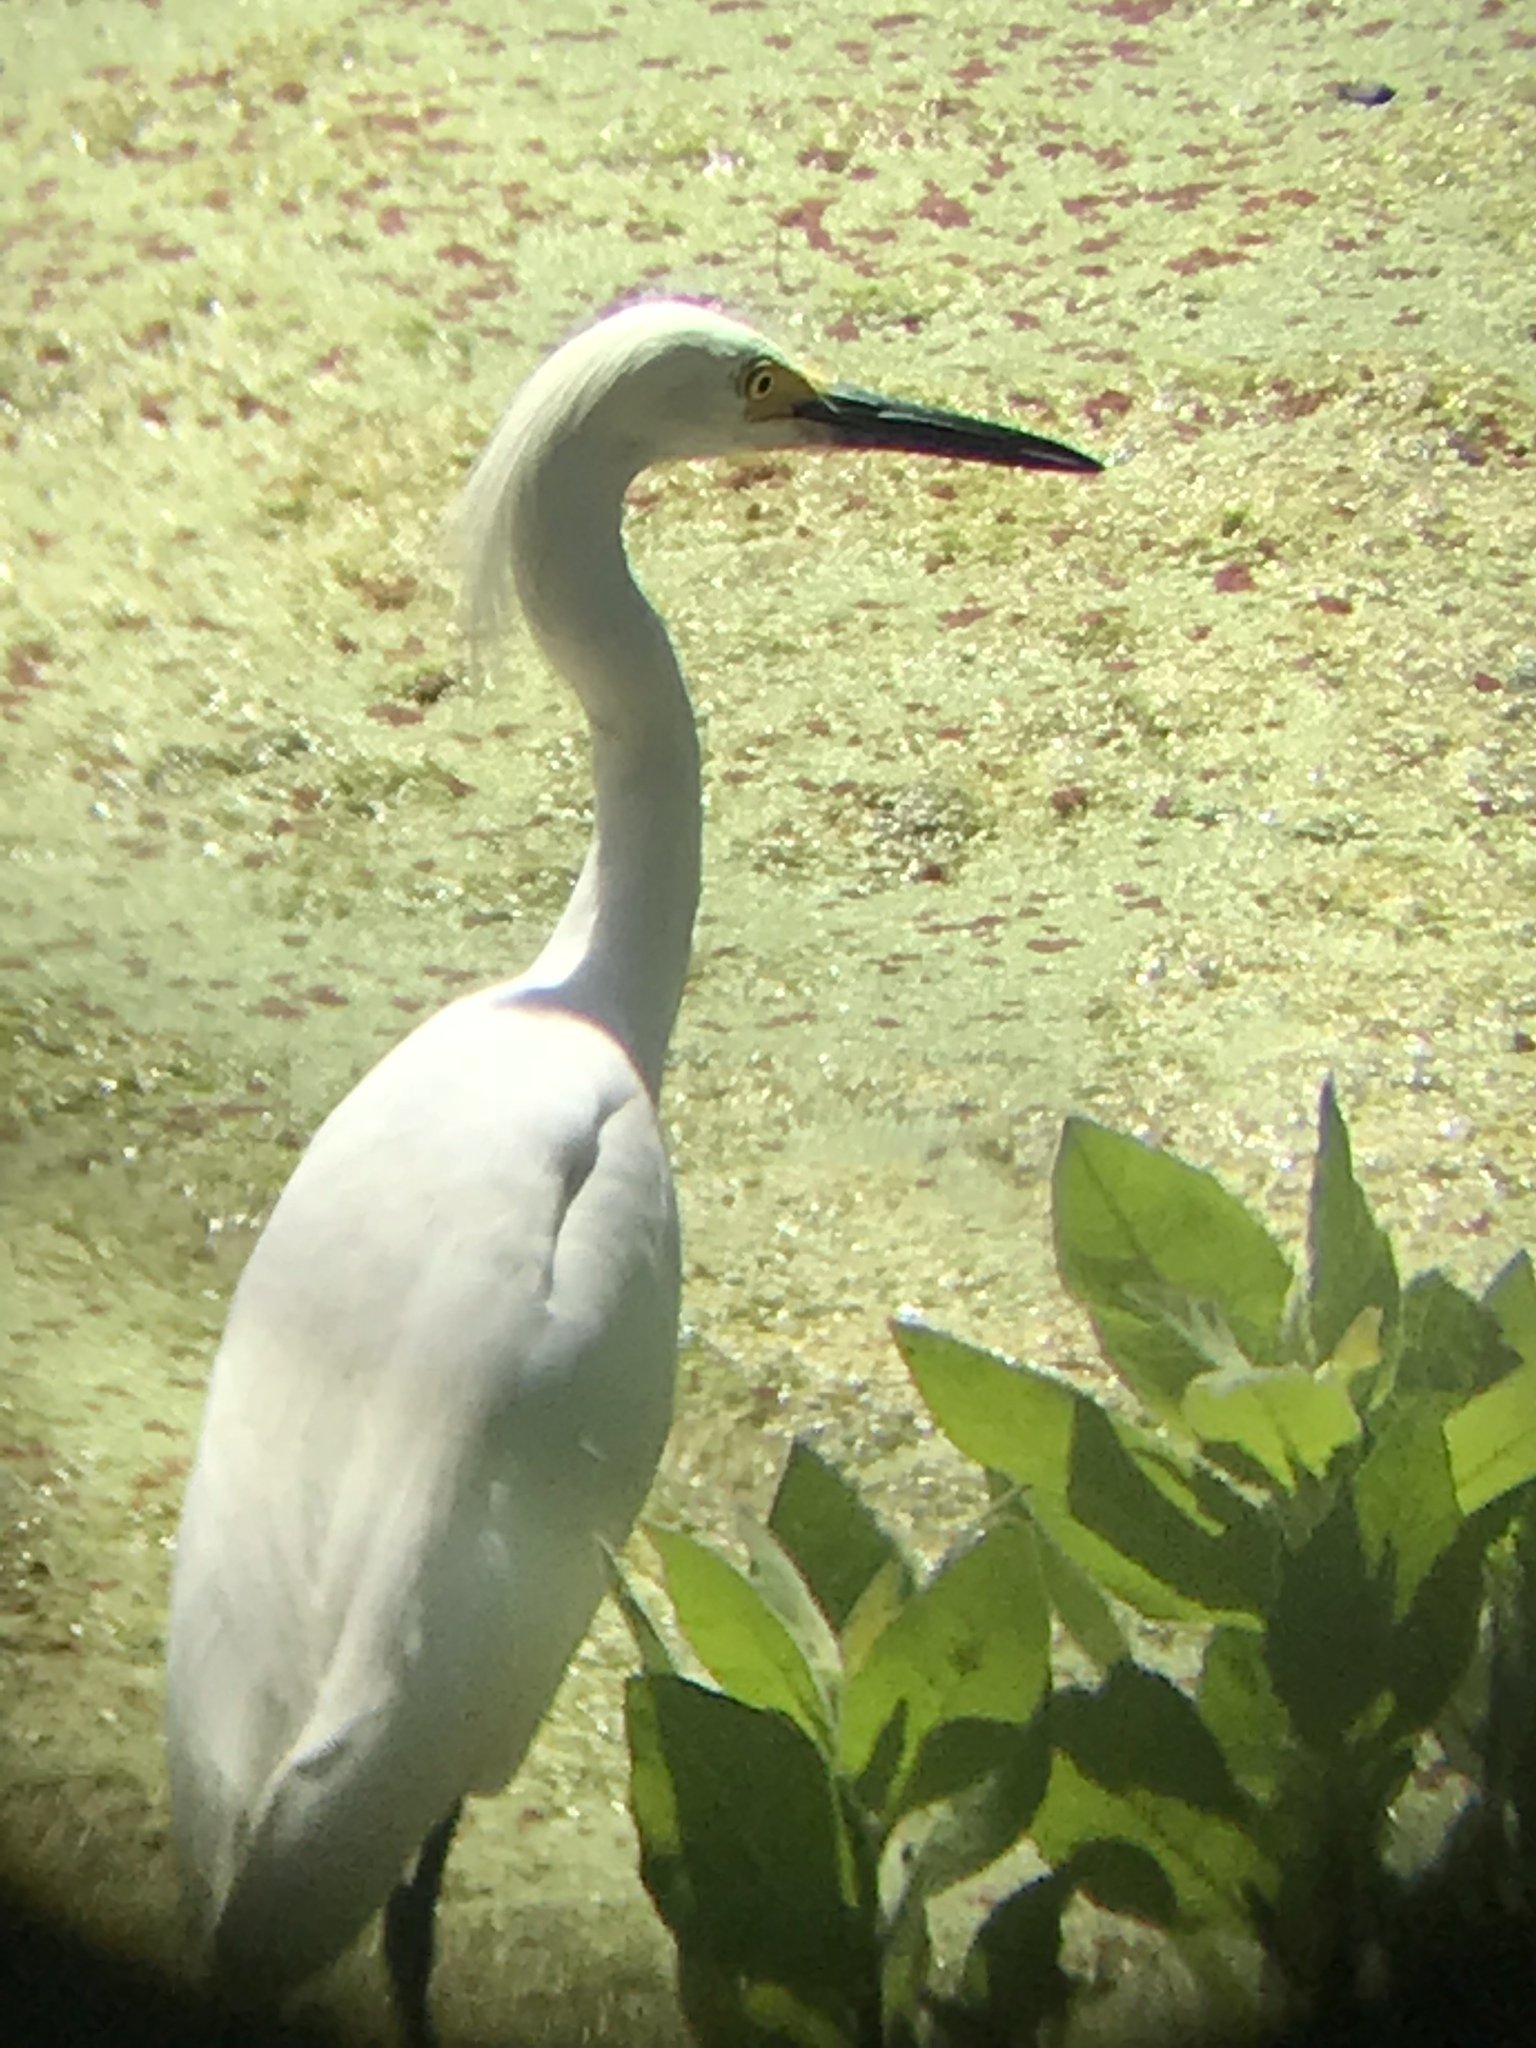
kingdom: Animalia
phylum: Chordata
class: Aves
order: Pelecaniformes
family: Ardeidae
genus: Egretta
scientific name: Egretta thula
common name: Snowy egret
